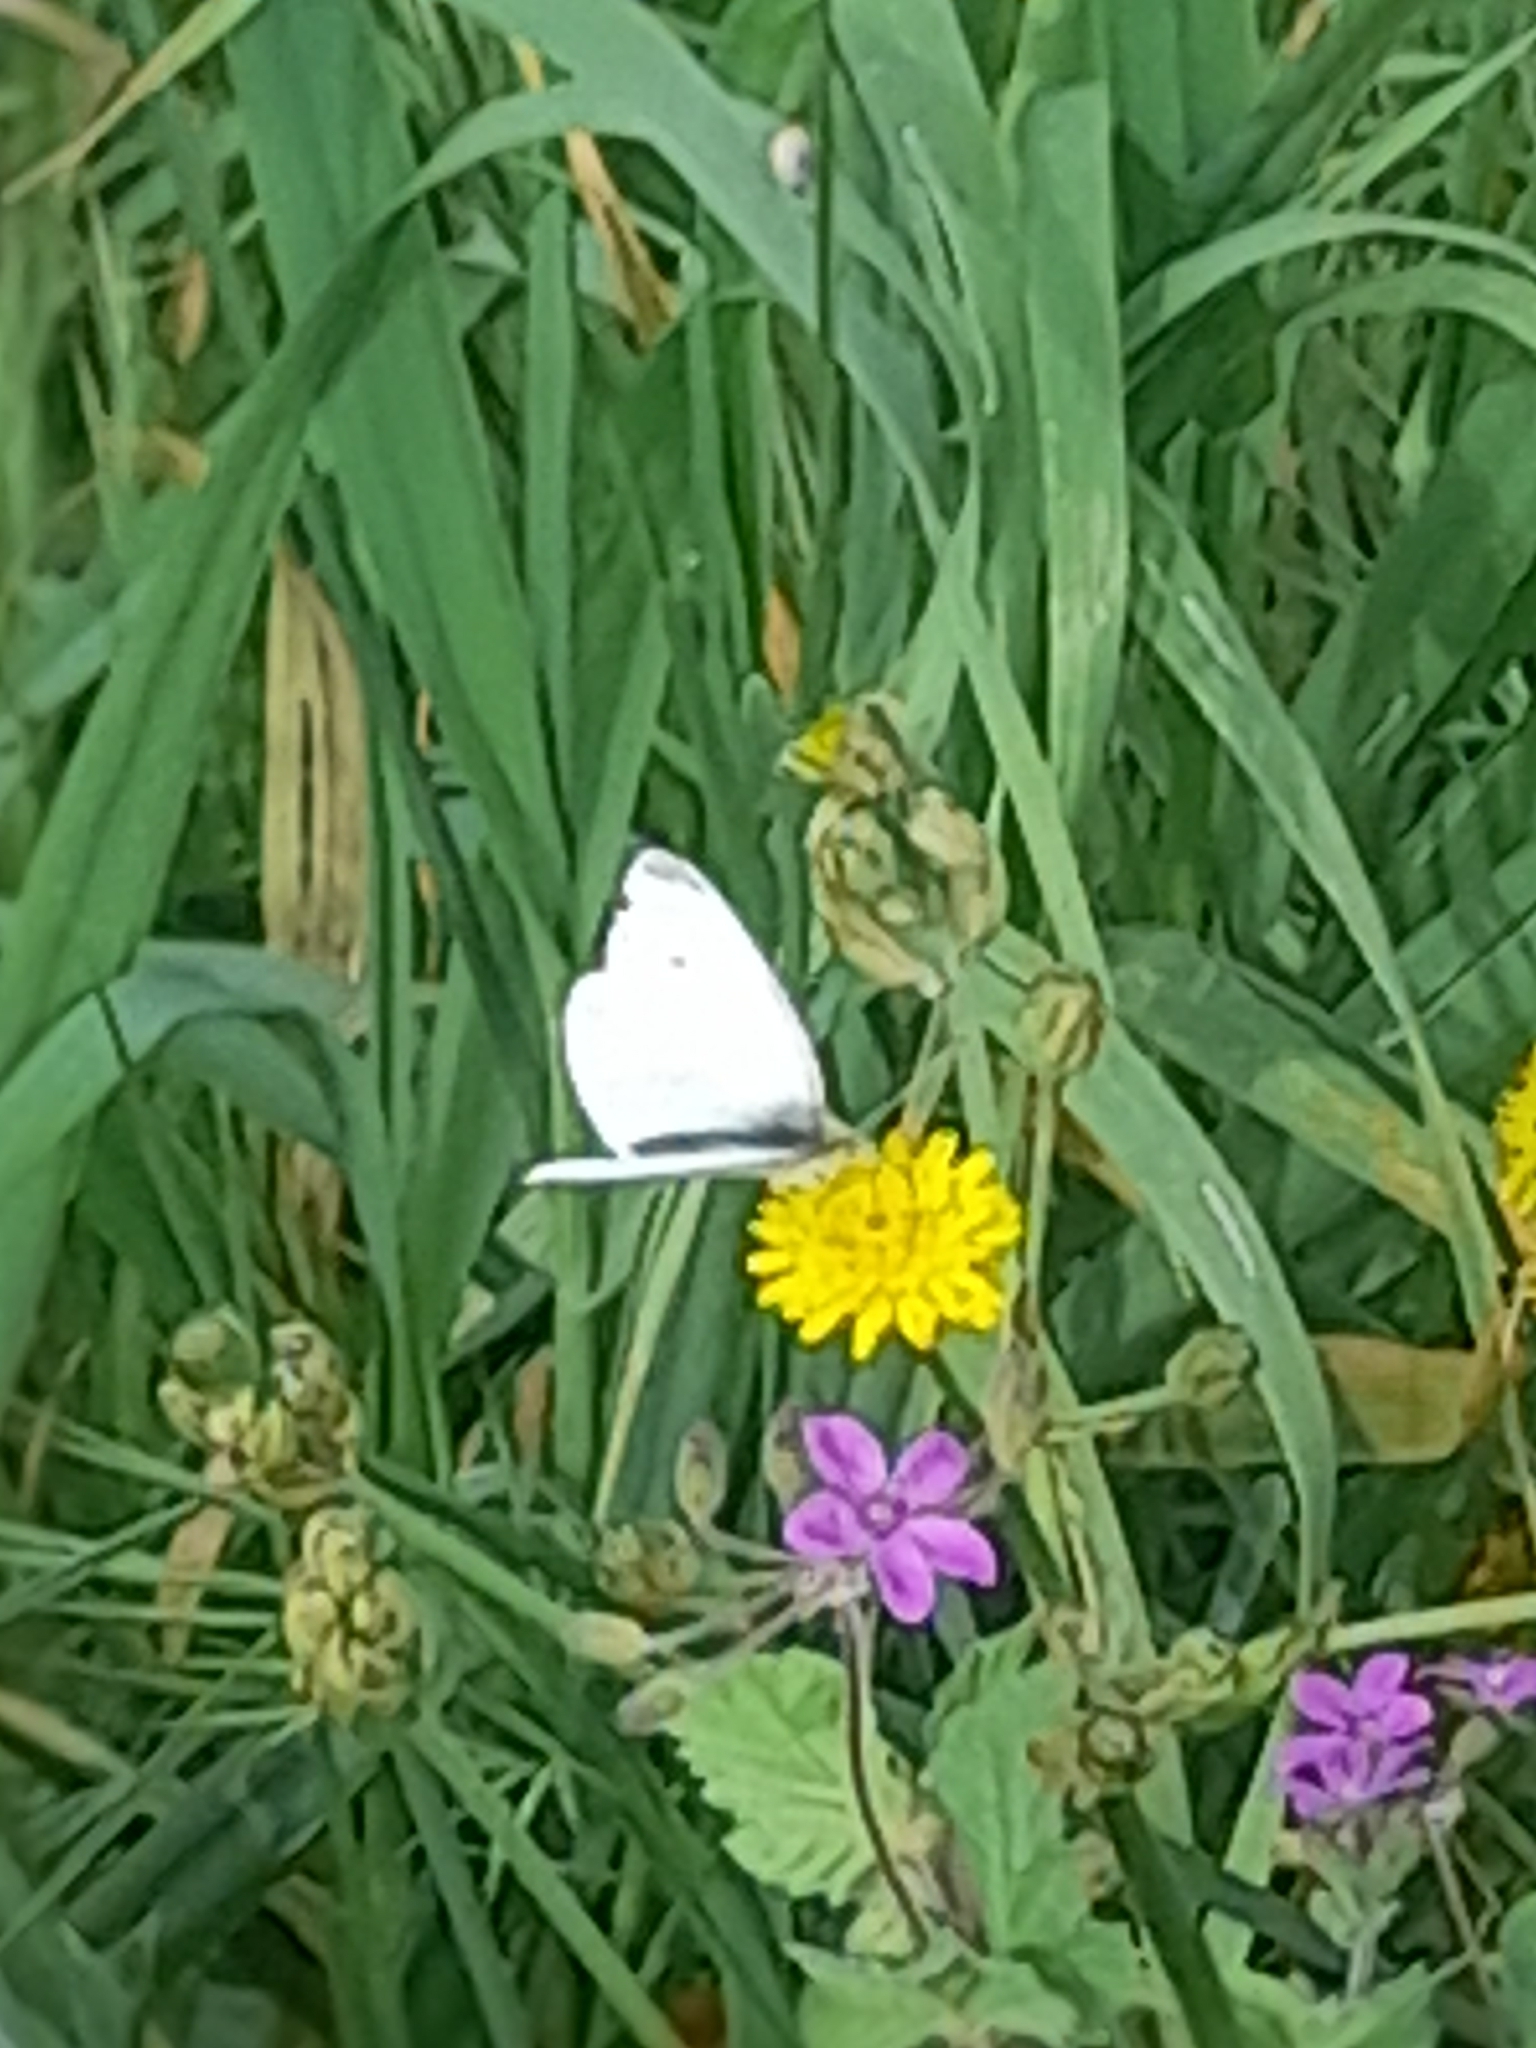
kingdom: Animalia
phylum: Arthropoda
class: Insecta
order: Lepidoptera
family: Pieridae
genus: Pieris
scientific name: Pieris rapae
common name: Small white
